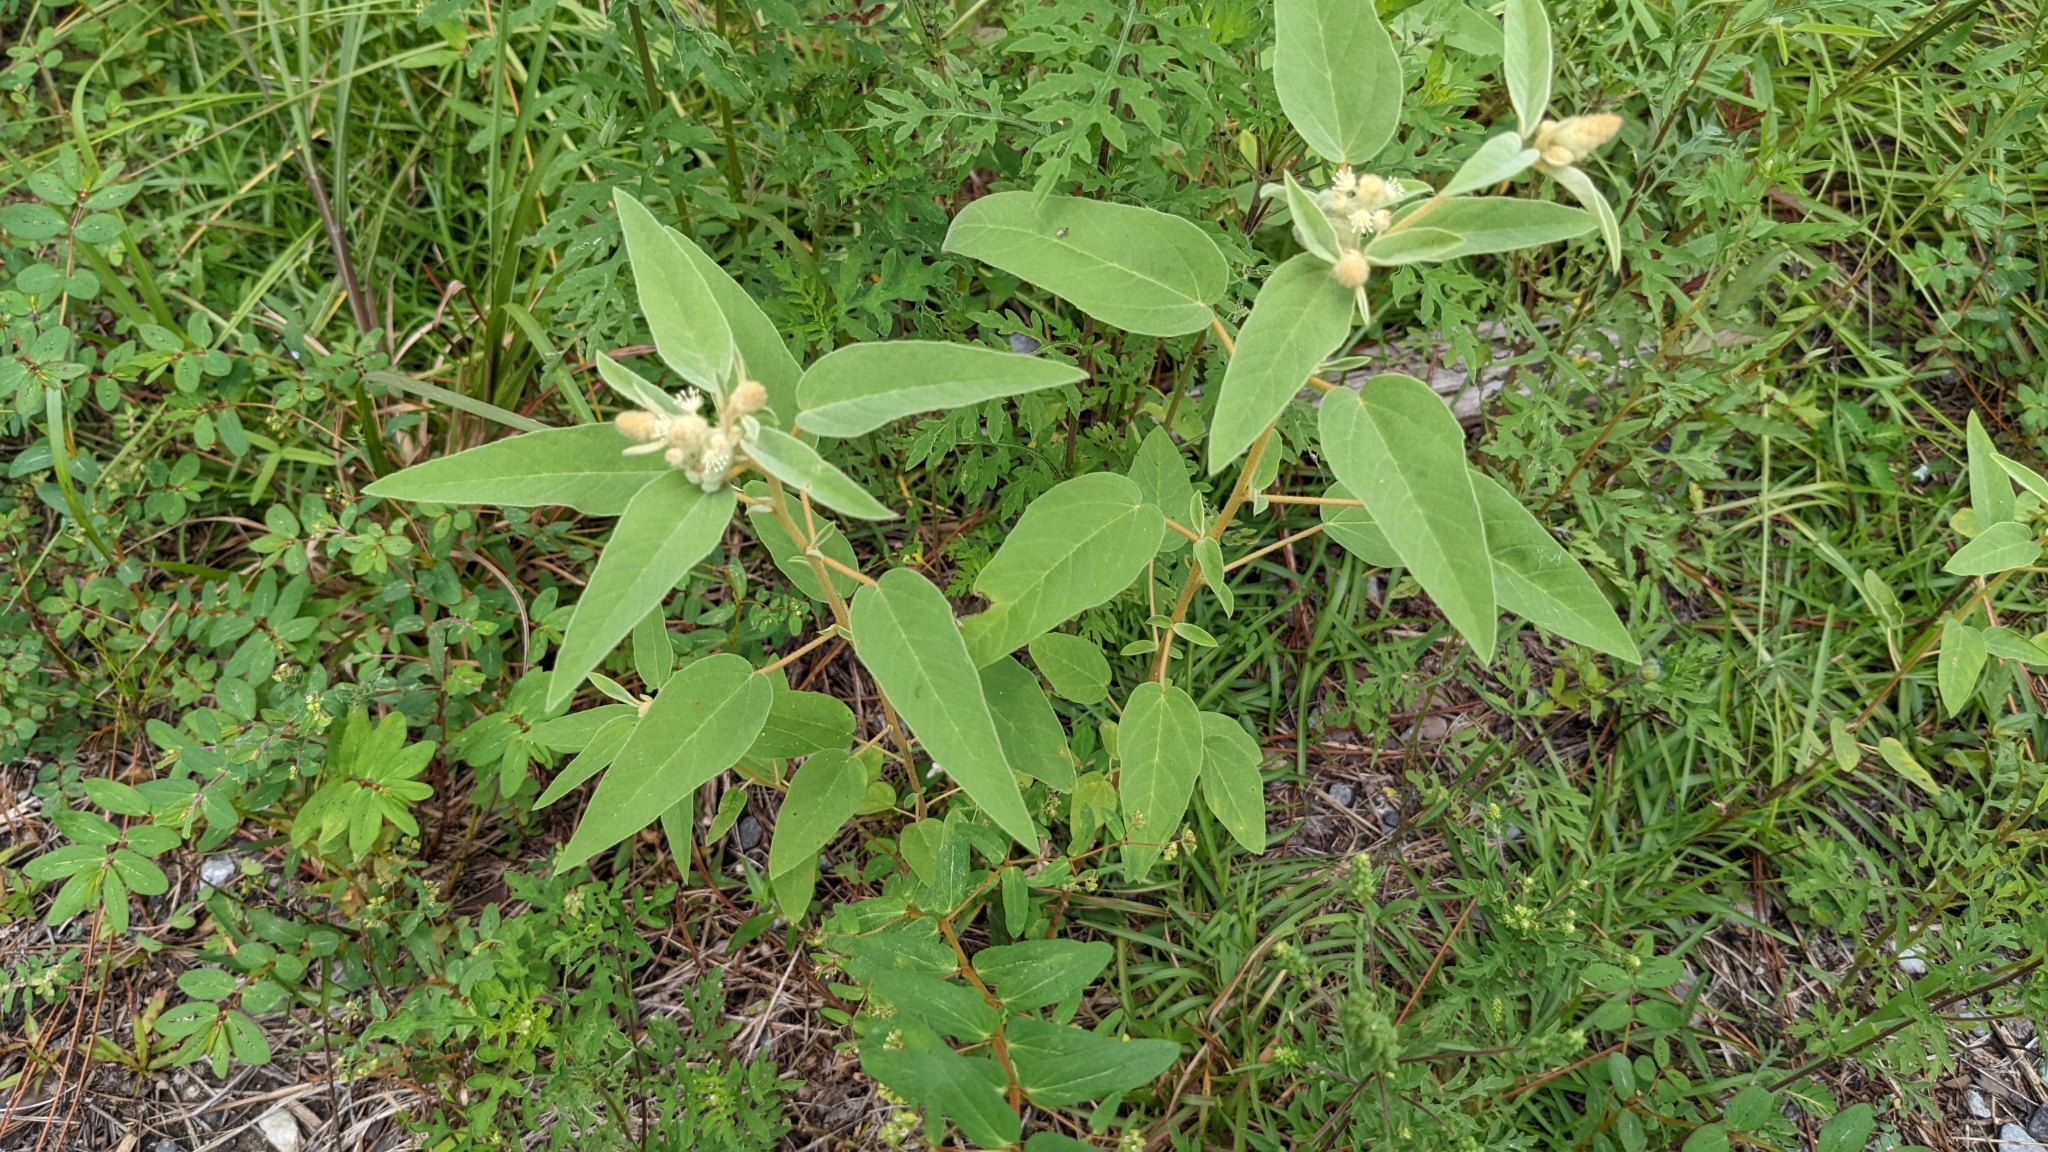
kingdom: Plantae
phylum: Tracheophyta
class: Magnoliopsida
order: Malpighiales
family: Euphorbiaceae
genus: Croton
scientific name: Croton lindheimeri
